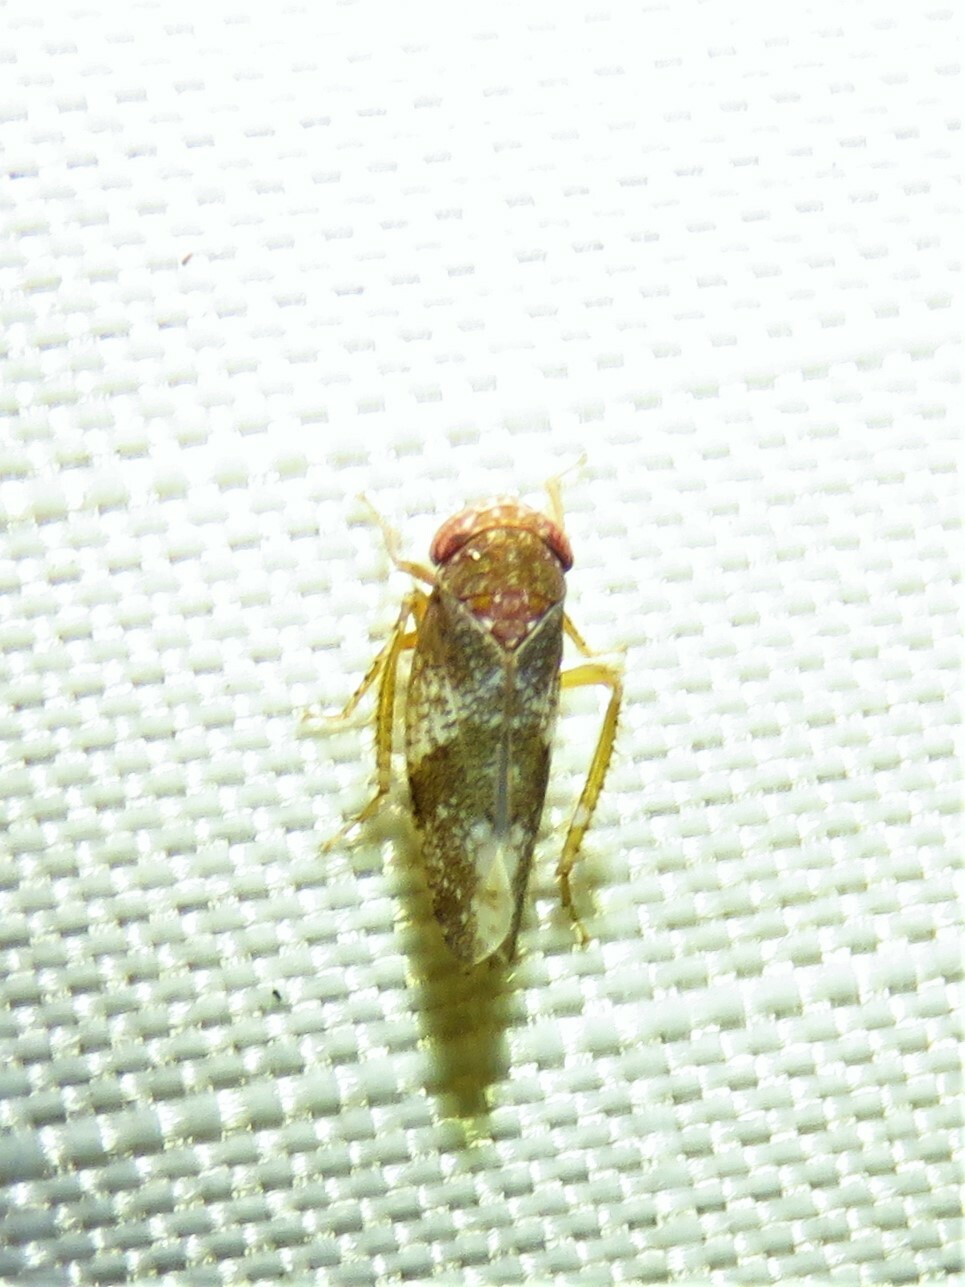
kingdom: Animalia
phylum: Arthropoda
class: Insecta
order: Hemiptera
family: Cicadellidae
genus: Norvellina
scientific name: Norvellina helenae
